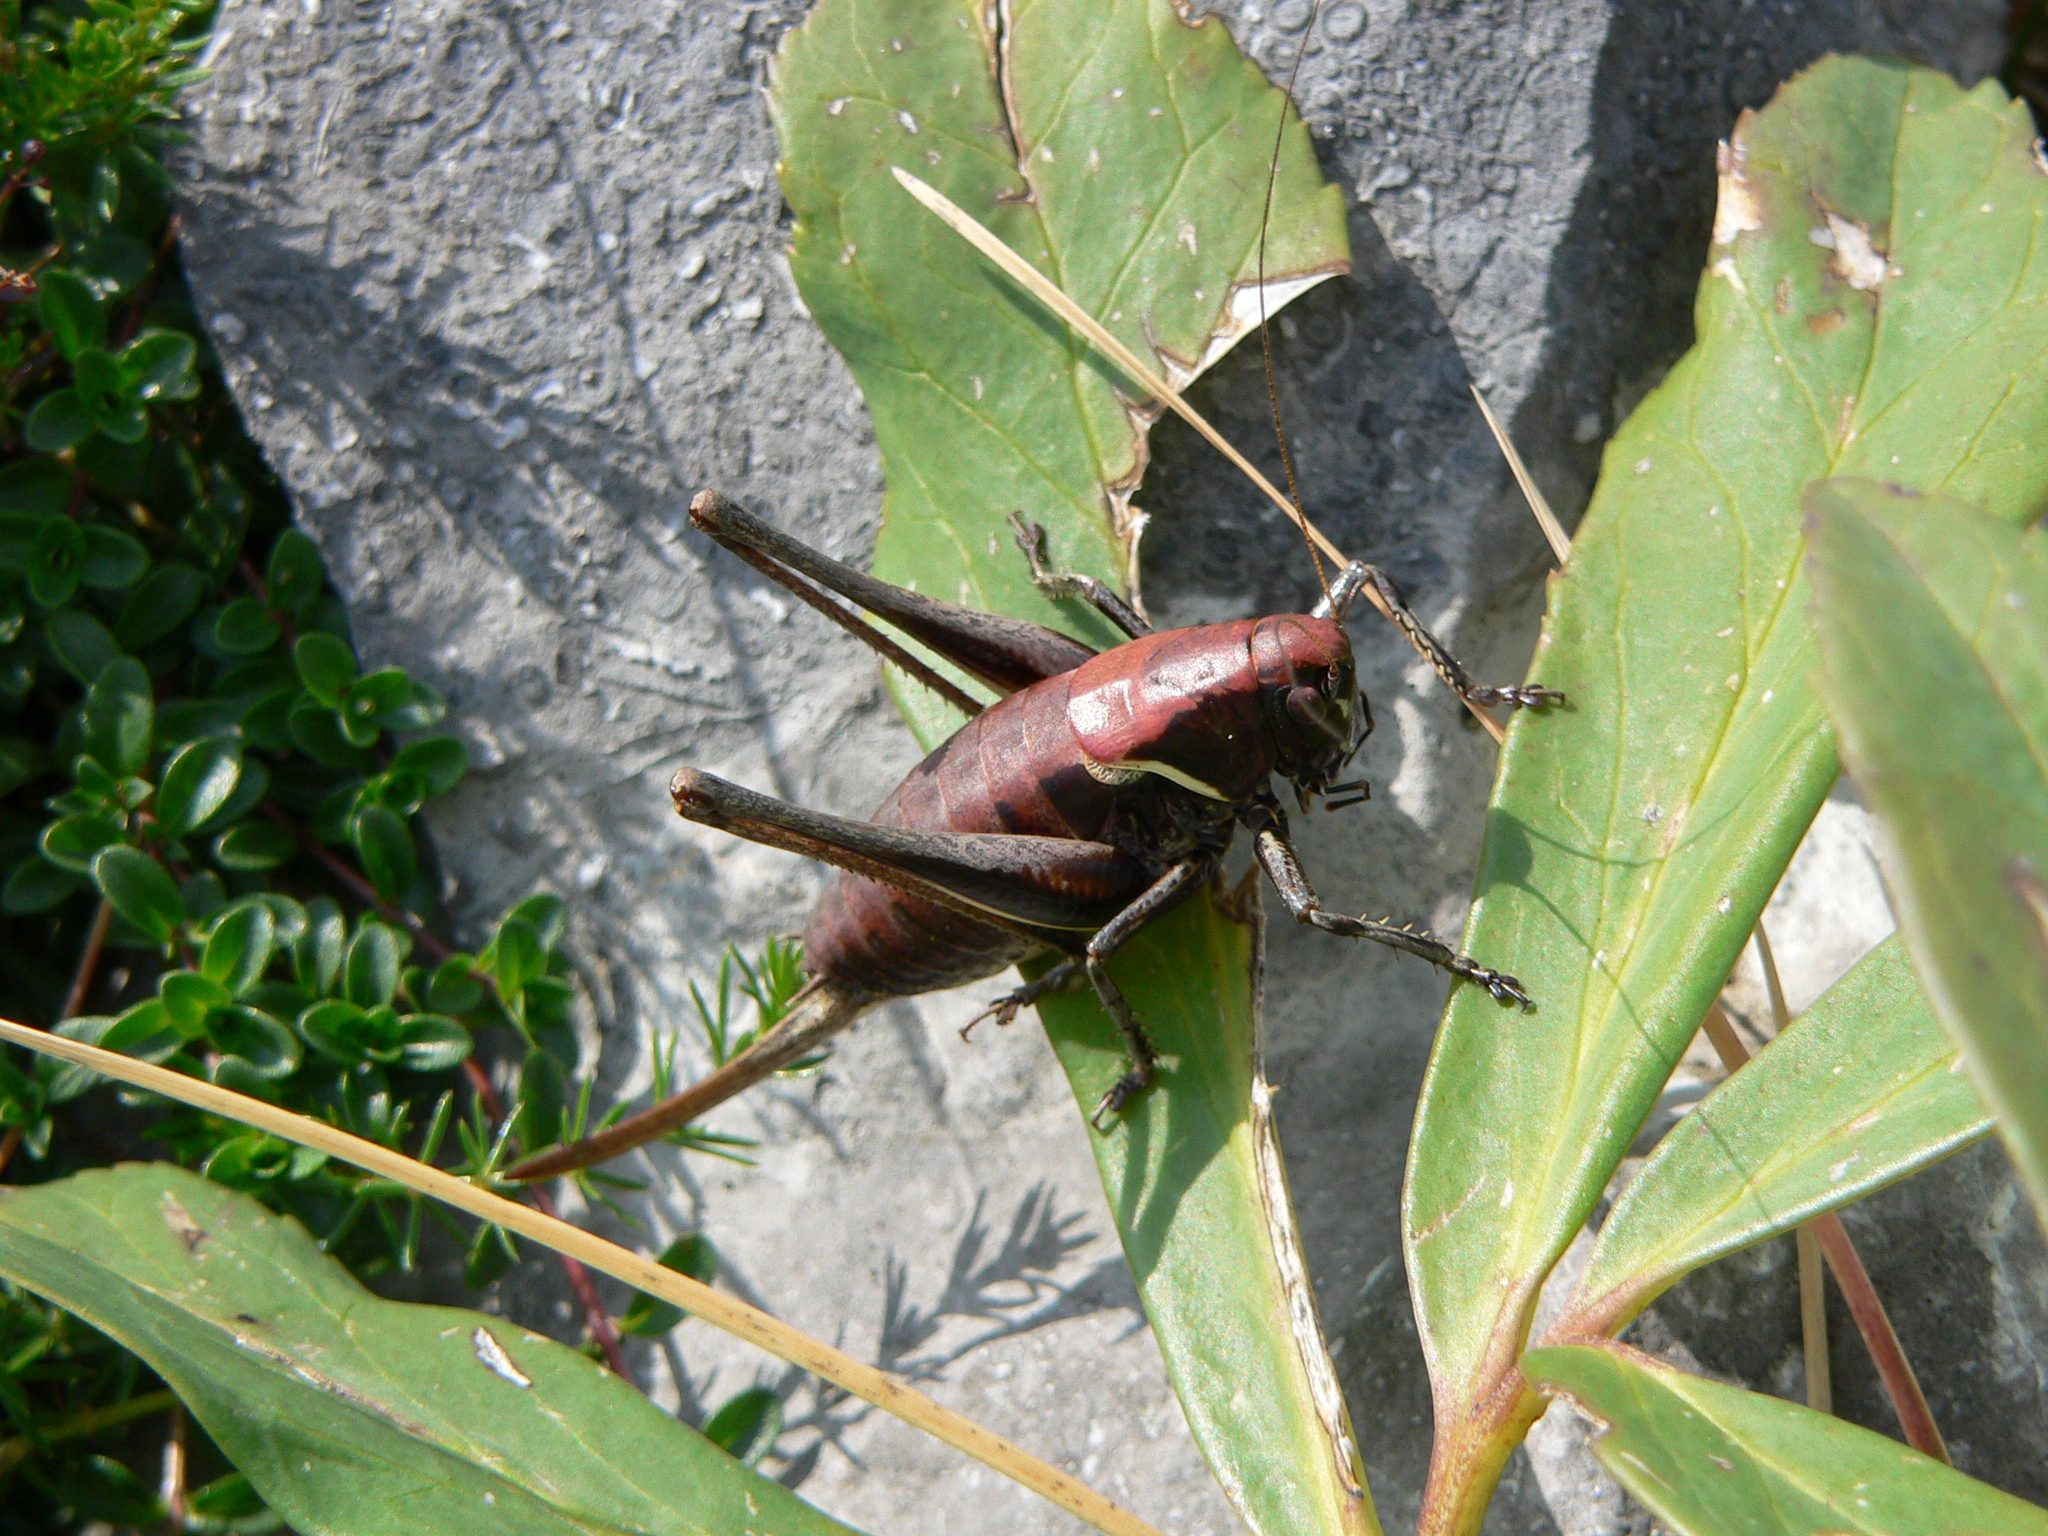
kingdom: Animalia
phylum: Arthropoda
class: Insecta
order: Orthoptera
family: Tettigoniidae
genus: Pholidoptera
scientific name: Pholidoptera aptera
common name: Alpine dark bush-cricket
